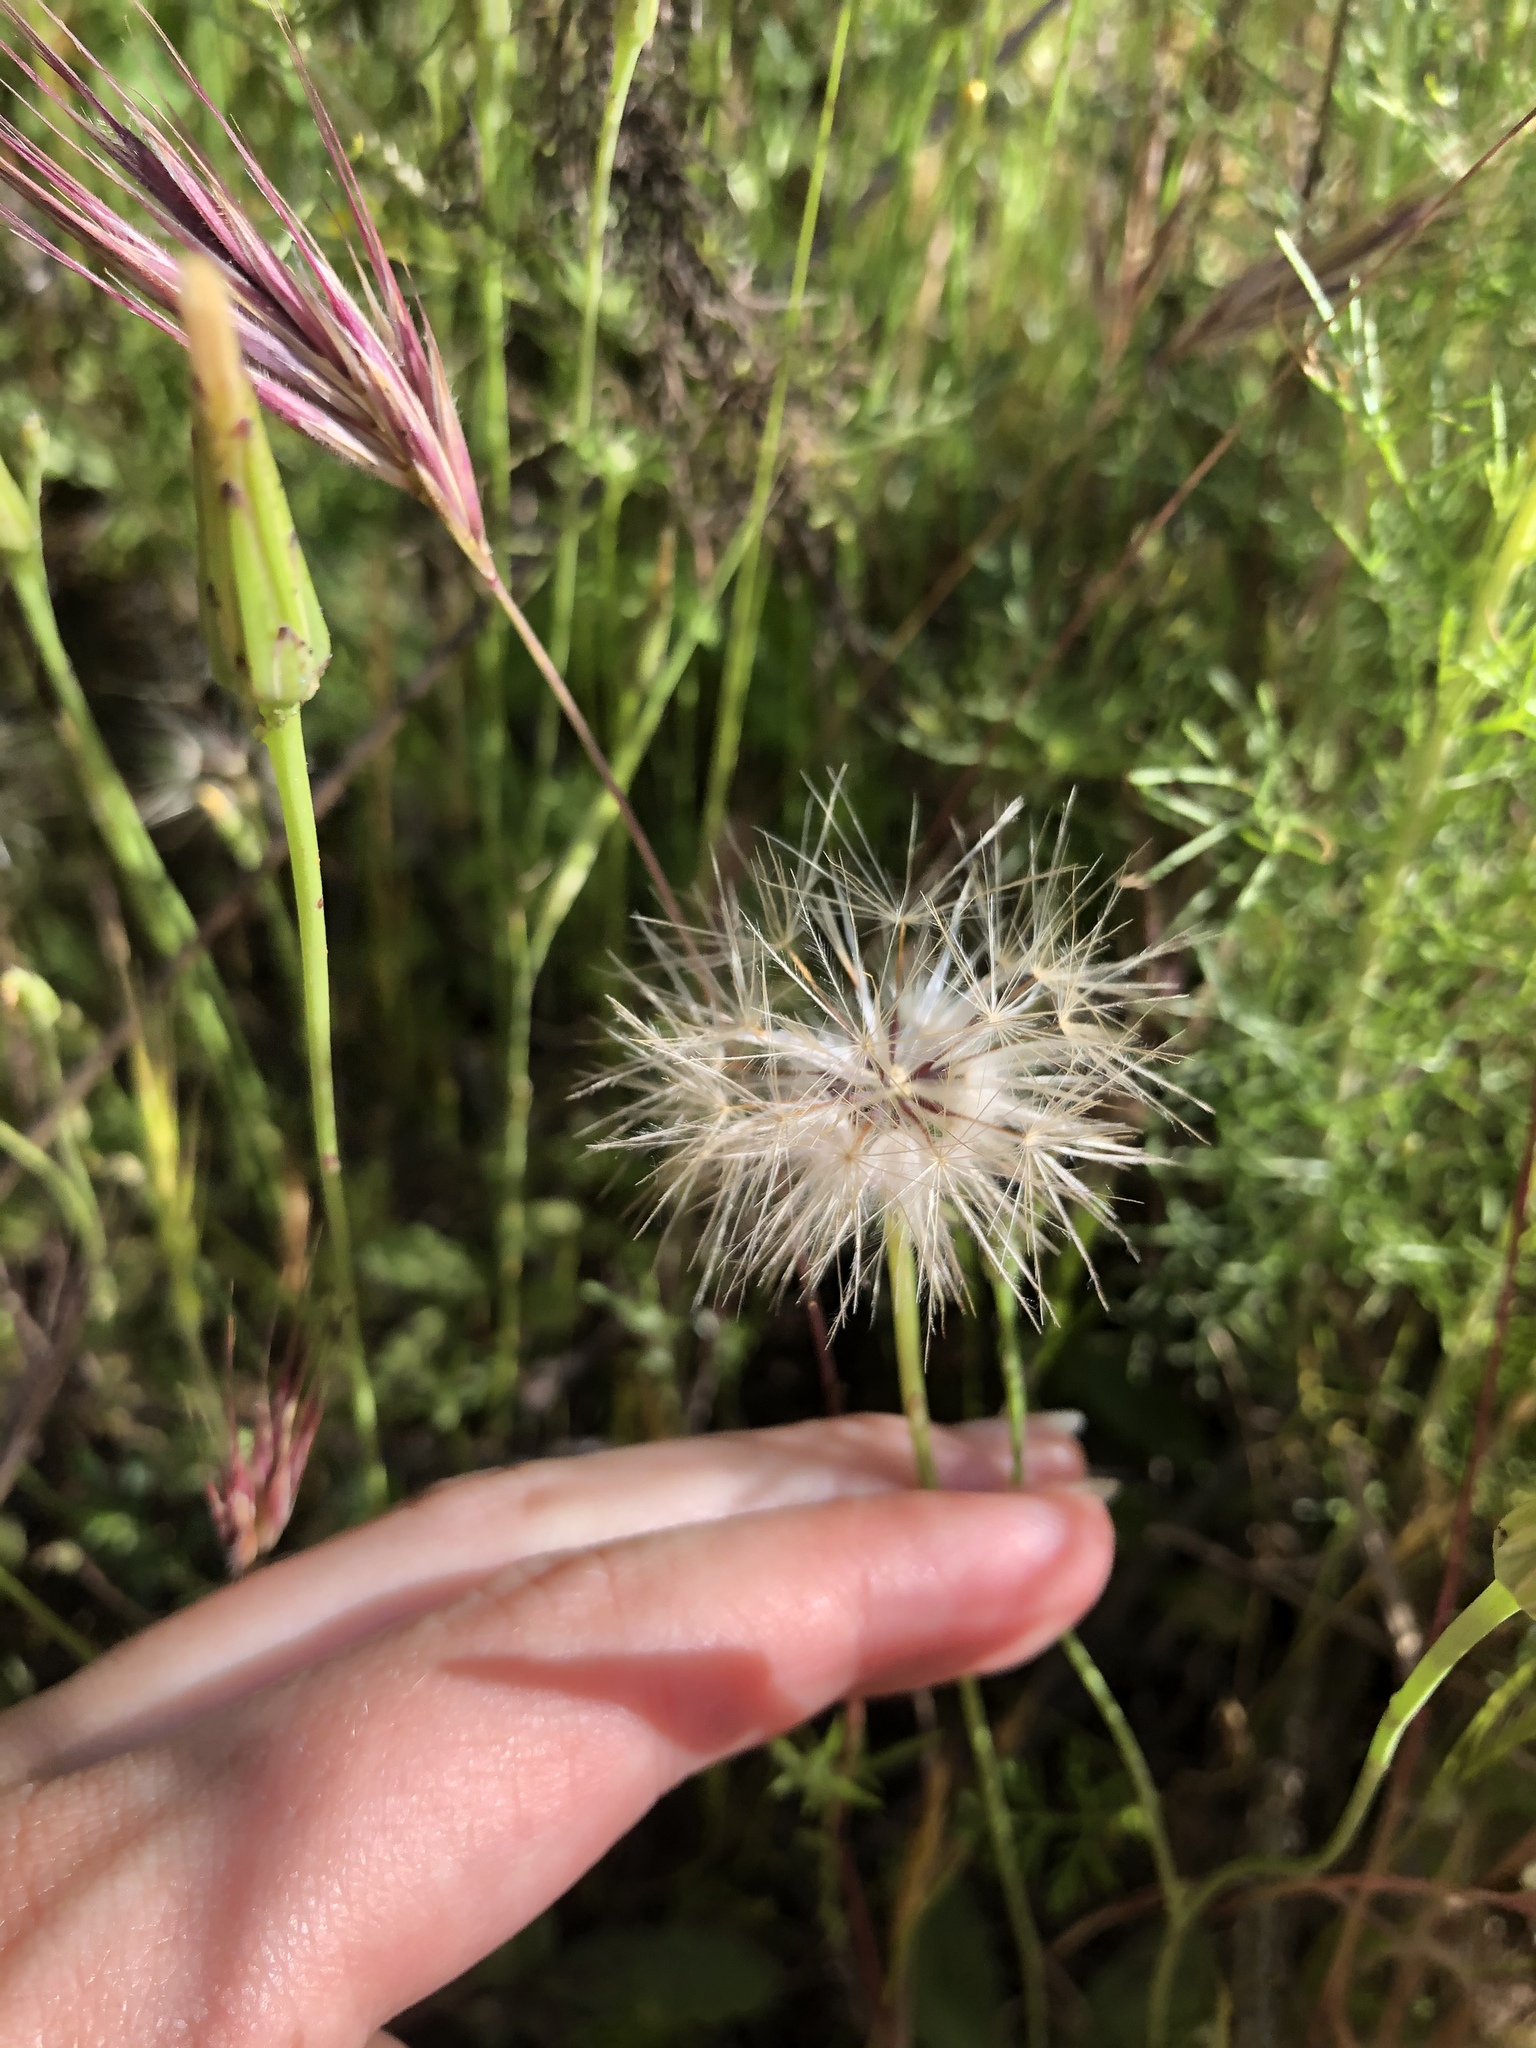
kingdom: Plantae
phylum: Tracheophyta
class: Magnoliopsida
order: Asterales
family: Asteraceae
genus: Hypochaeris
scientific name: Hypochaeris glabra
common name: Smooth catsear
